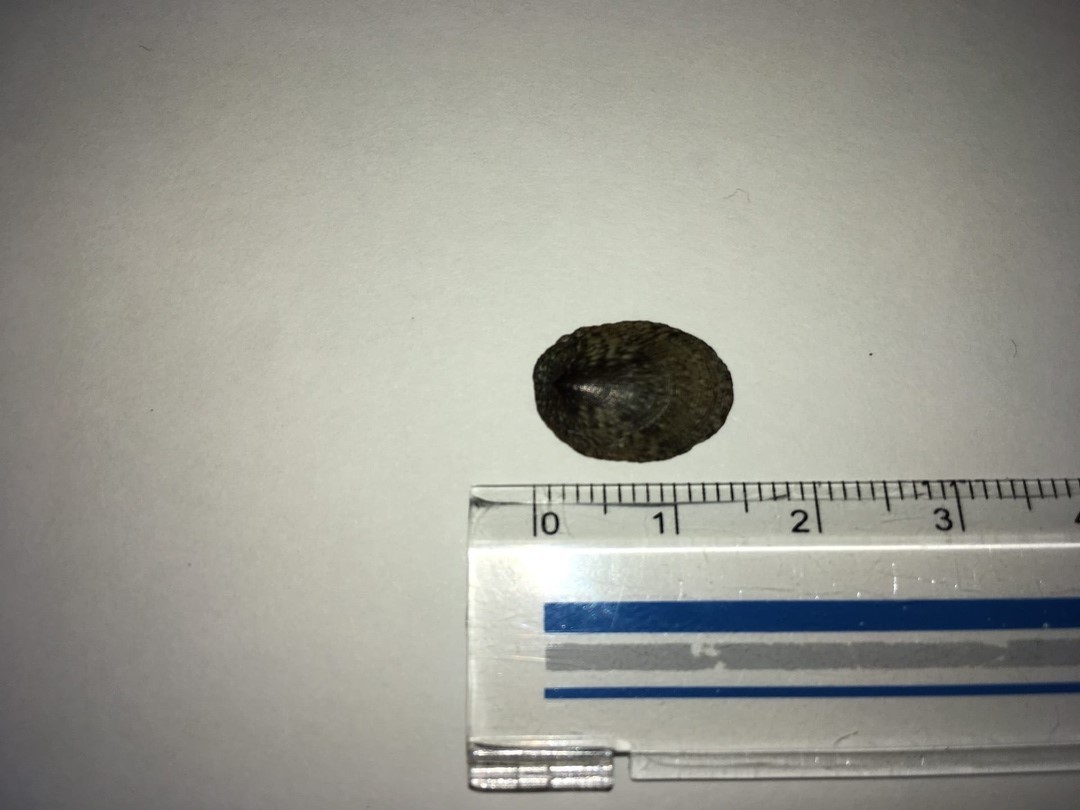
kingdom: Animalia
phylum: Mollusca
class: Gastropoda
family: Lottiidae
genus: Nipponacmea
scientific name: Nipponacmea schrenckii
